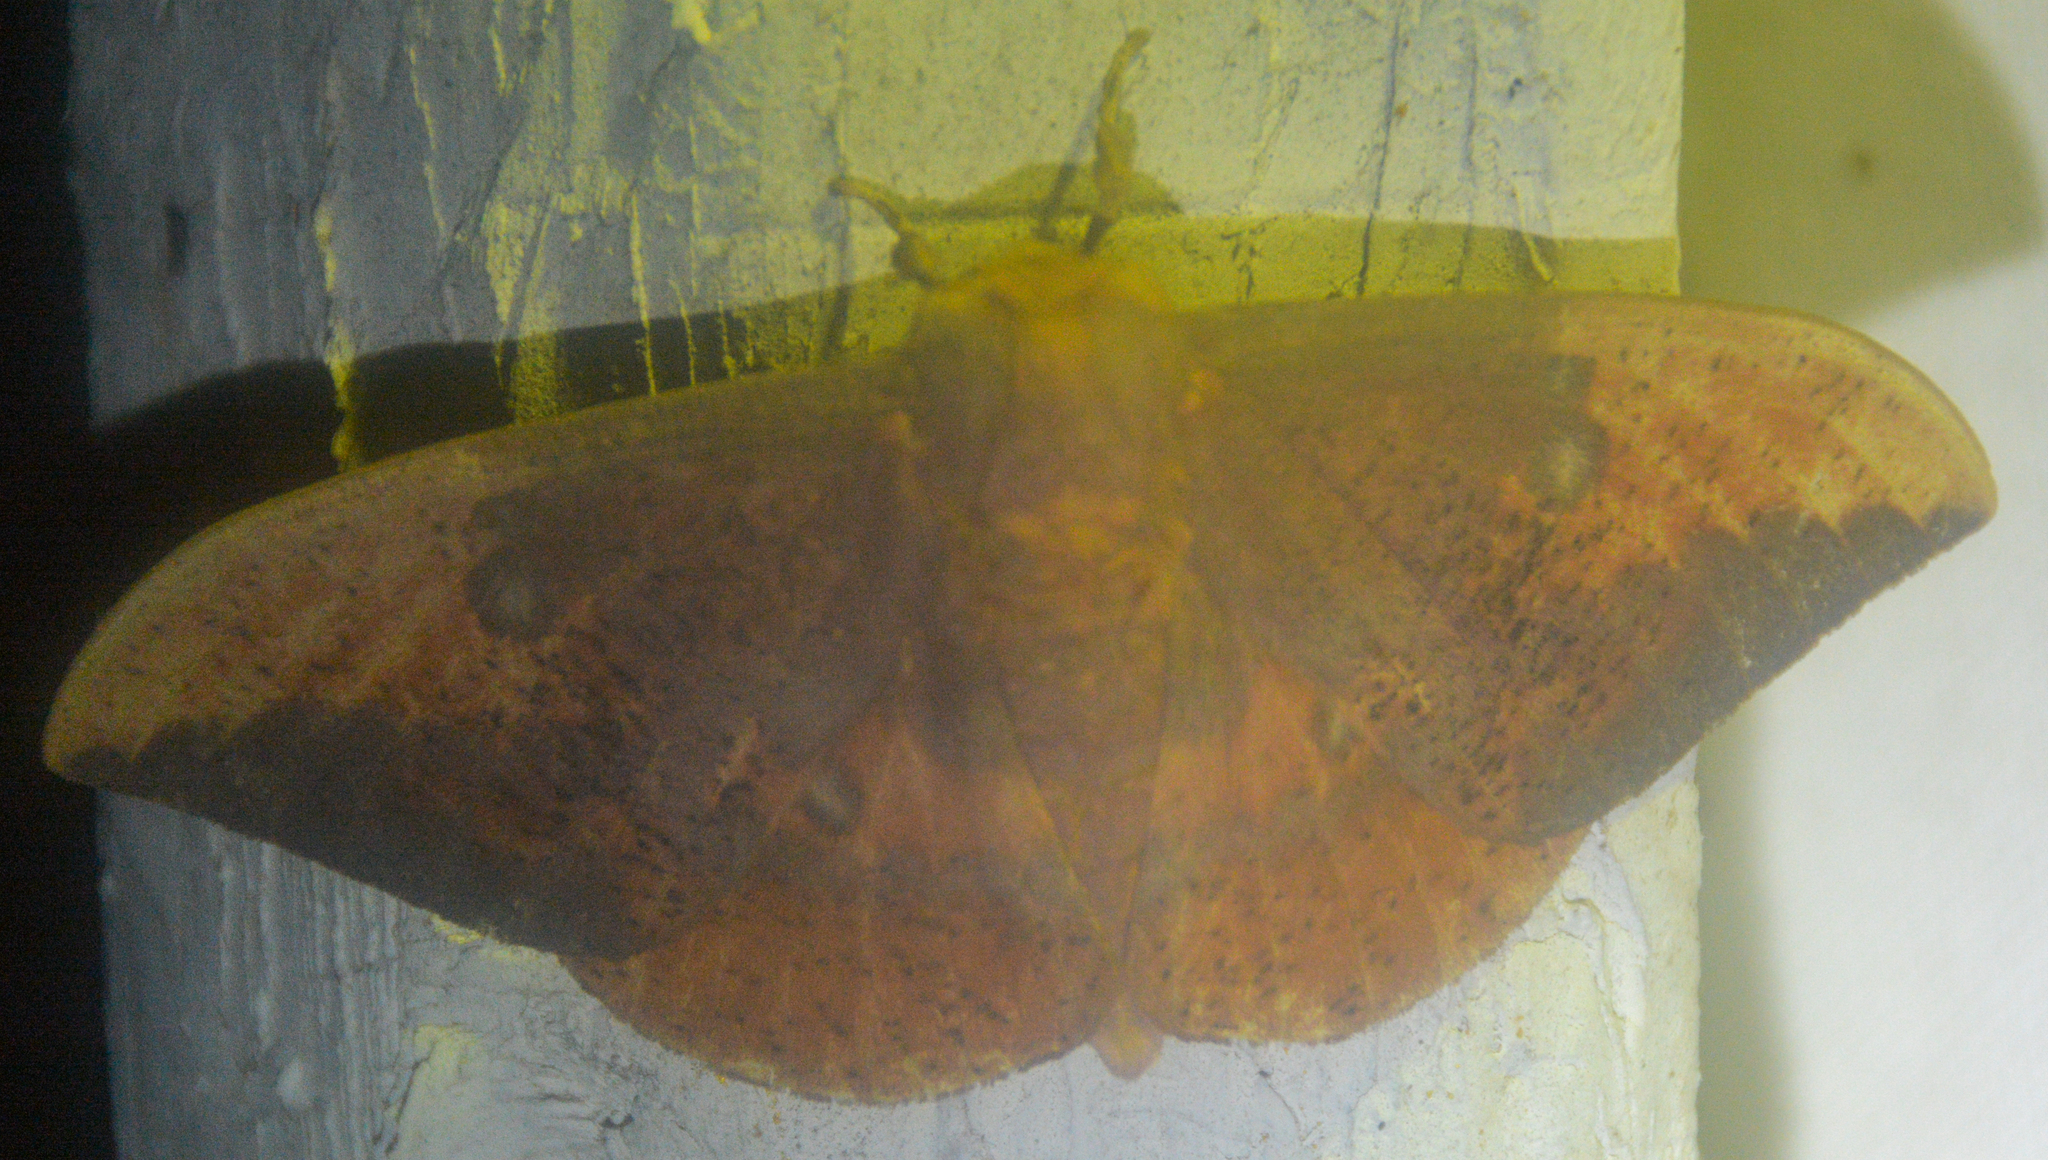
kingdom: Animalia
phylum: Arthropoda
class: Insecta
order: Lepidoptera
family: Saturniidae
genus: Eacles
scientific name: Eacles imperialis
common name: Imperial moth
